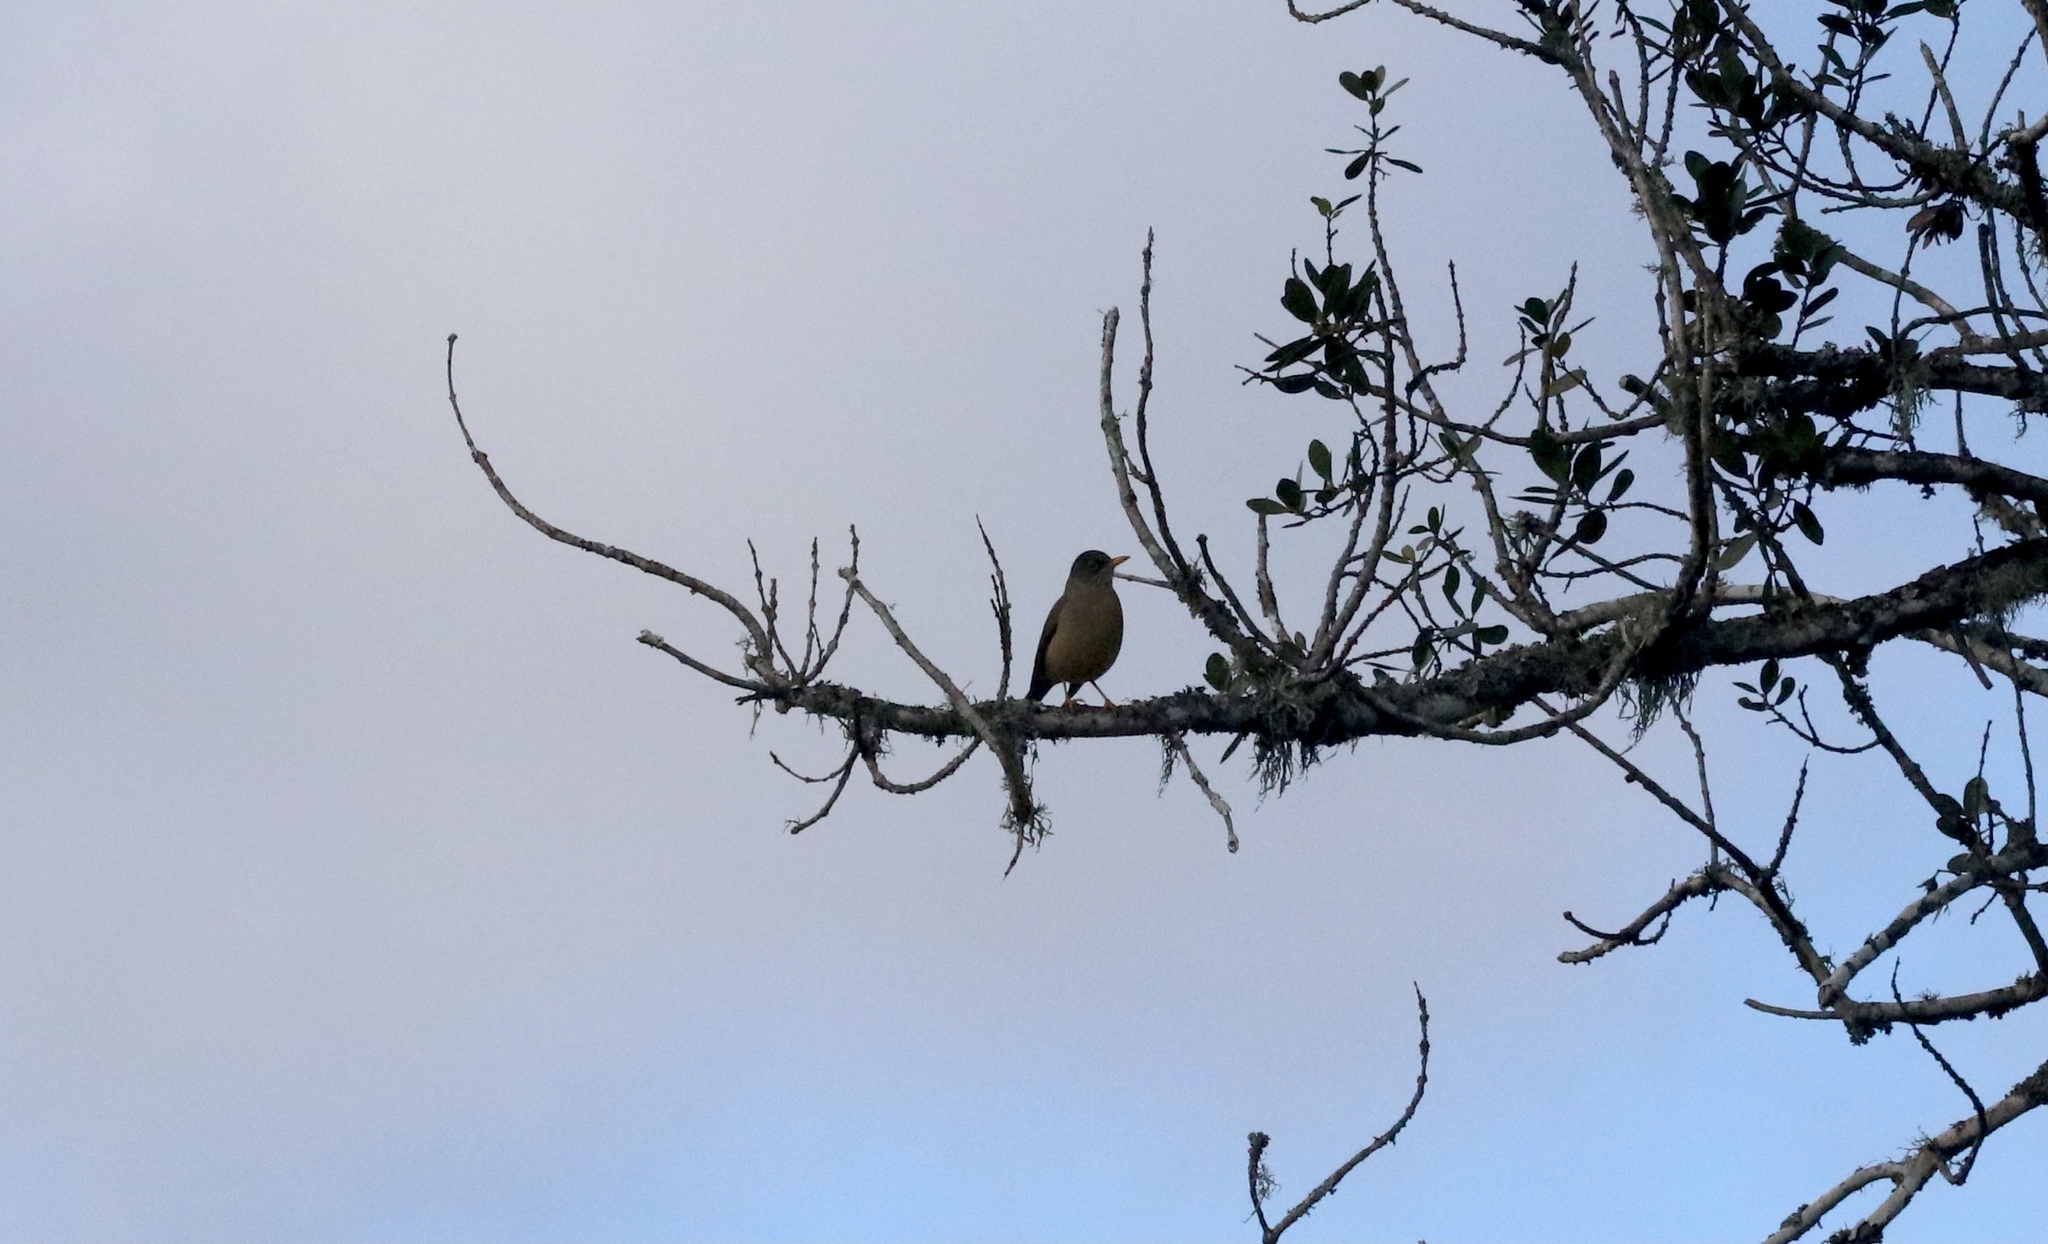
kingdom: Animalia
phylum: Chordata
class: Aves
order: Passeriformes
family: Turdidae
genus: Turdus
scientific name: Turdus falcklandii
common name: Austral thrush
